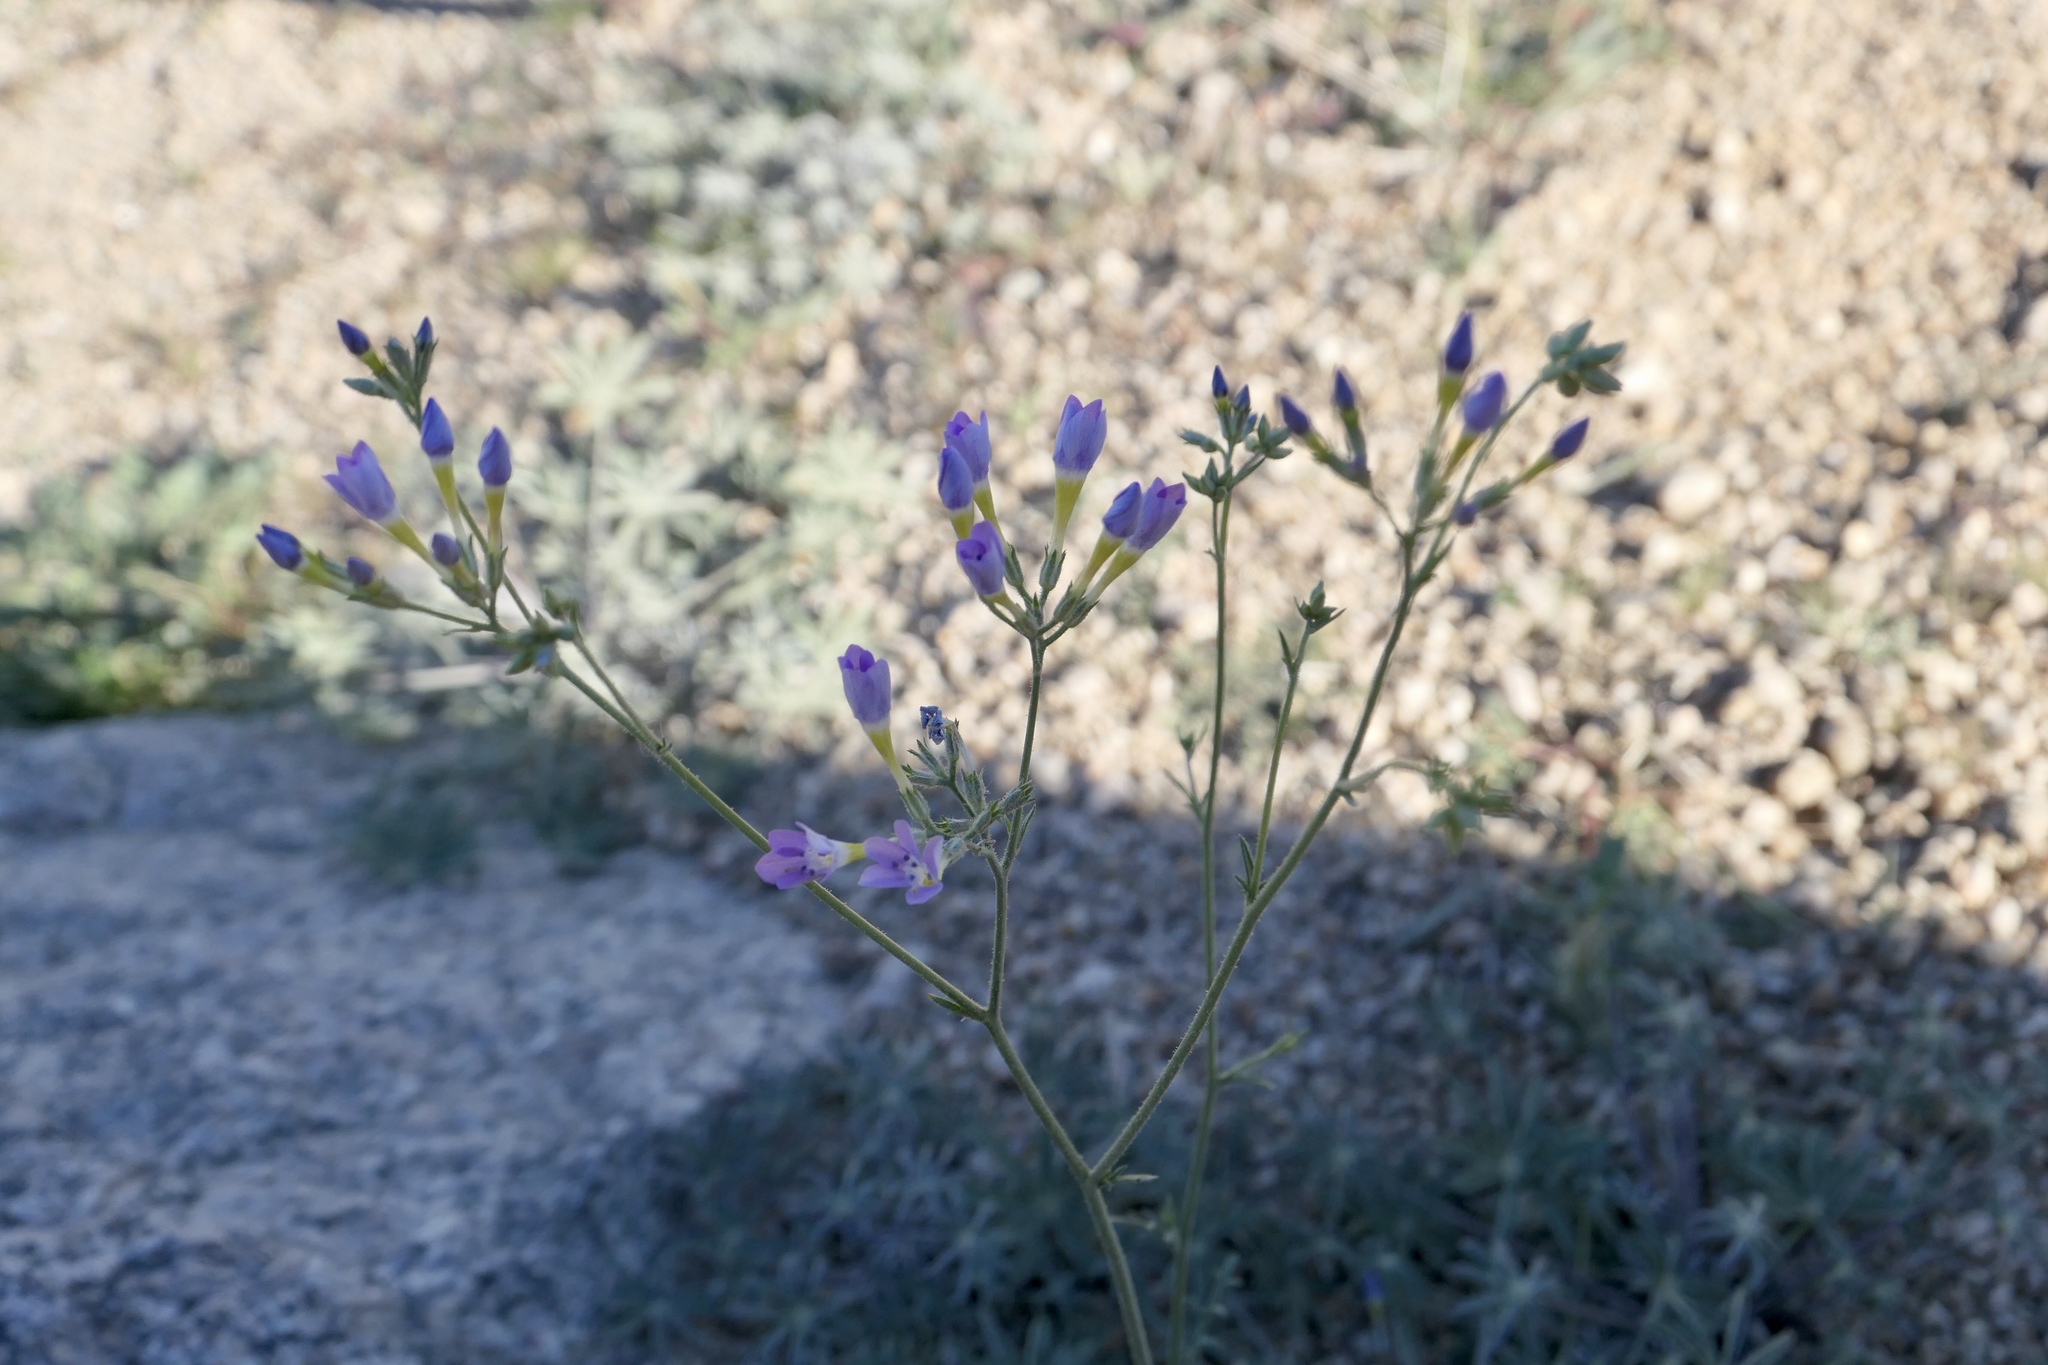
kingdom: Plantae
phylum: Tracheophyta
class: Magnoliopsida
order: Ericales
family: Polemoniaceae
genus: Gilia
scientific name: Gilia flavocincta
